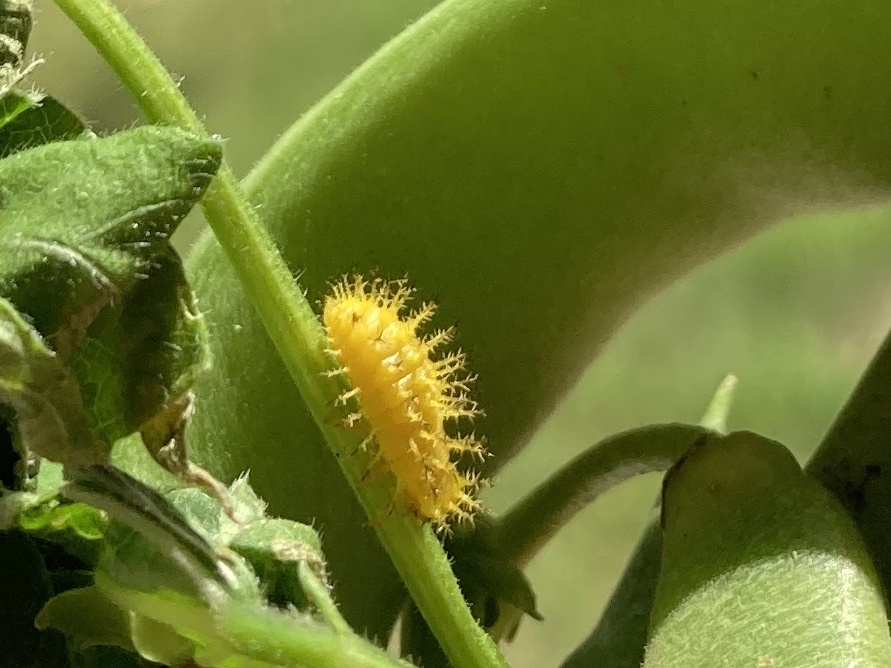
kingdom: Animalia
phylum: Arthropoda
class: Insecta
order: Coleoptera
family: Coccinellidae
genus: Epilachna
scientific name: Epilachna varivestis
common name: Ladybird beetle
